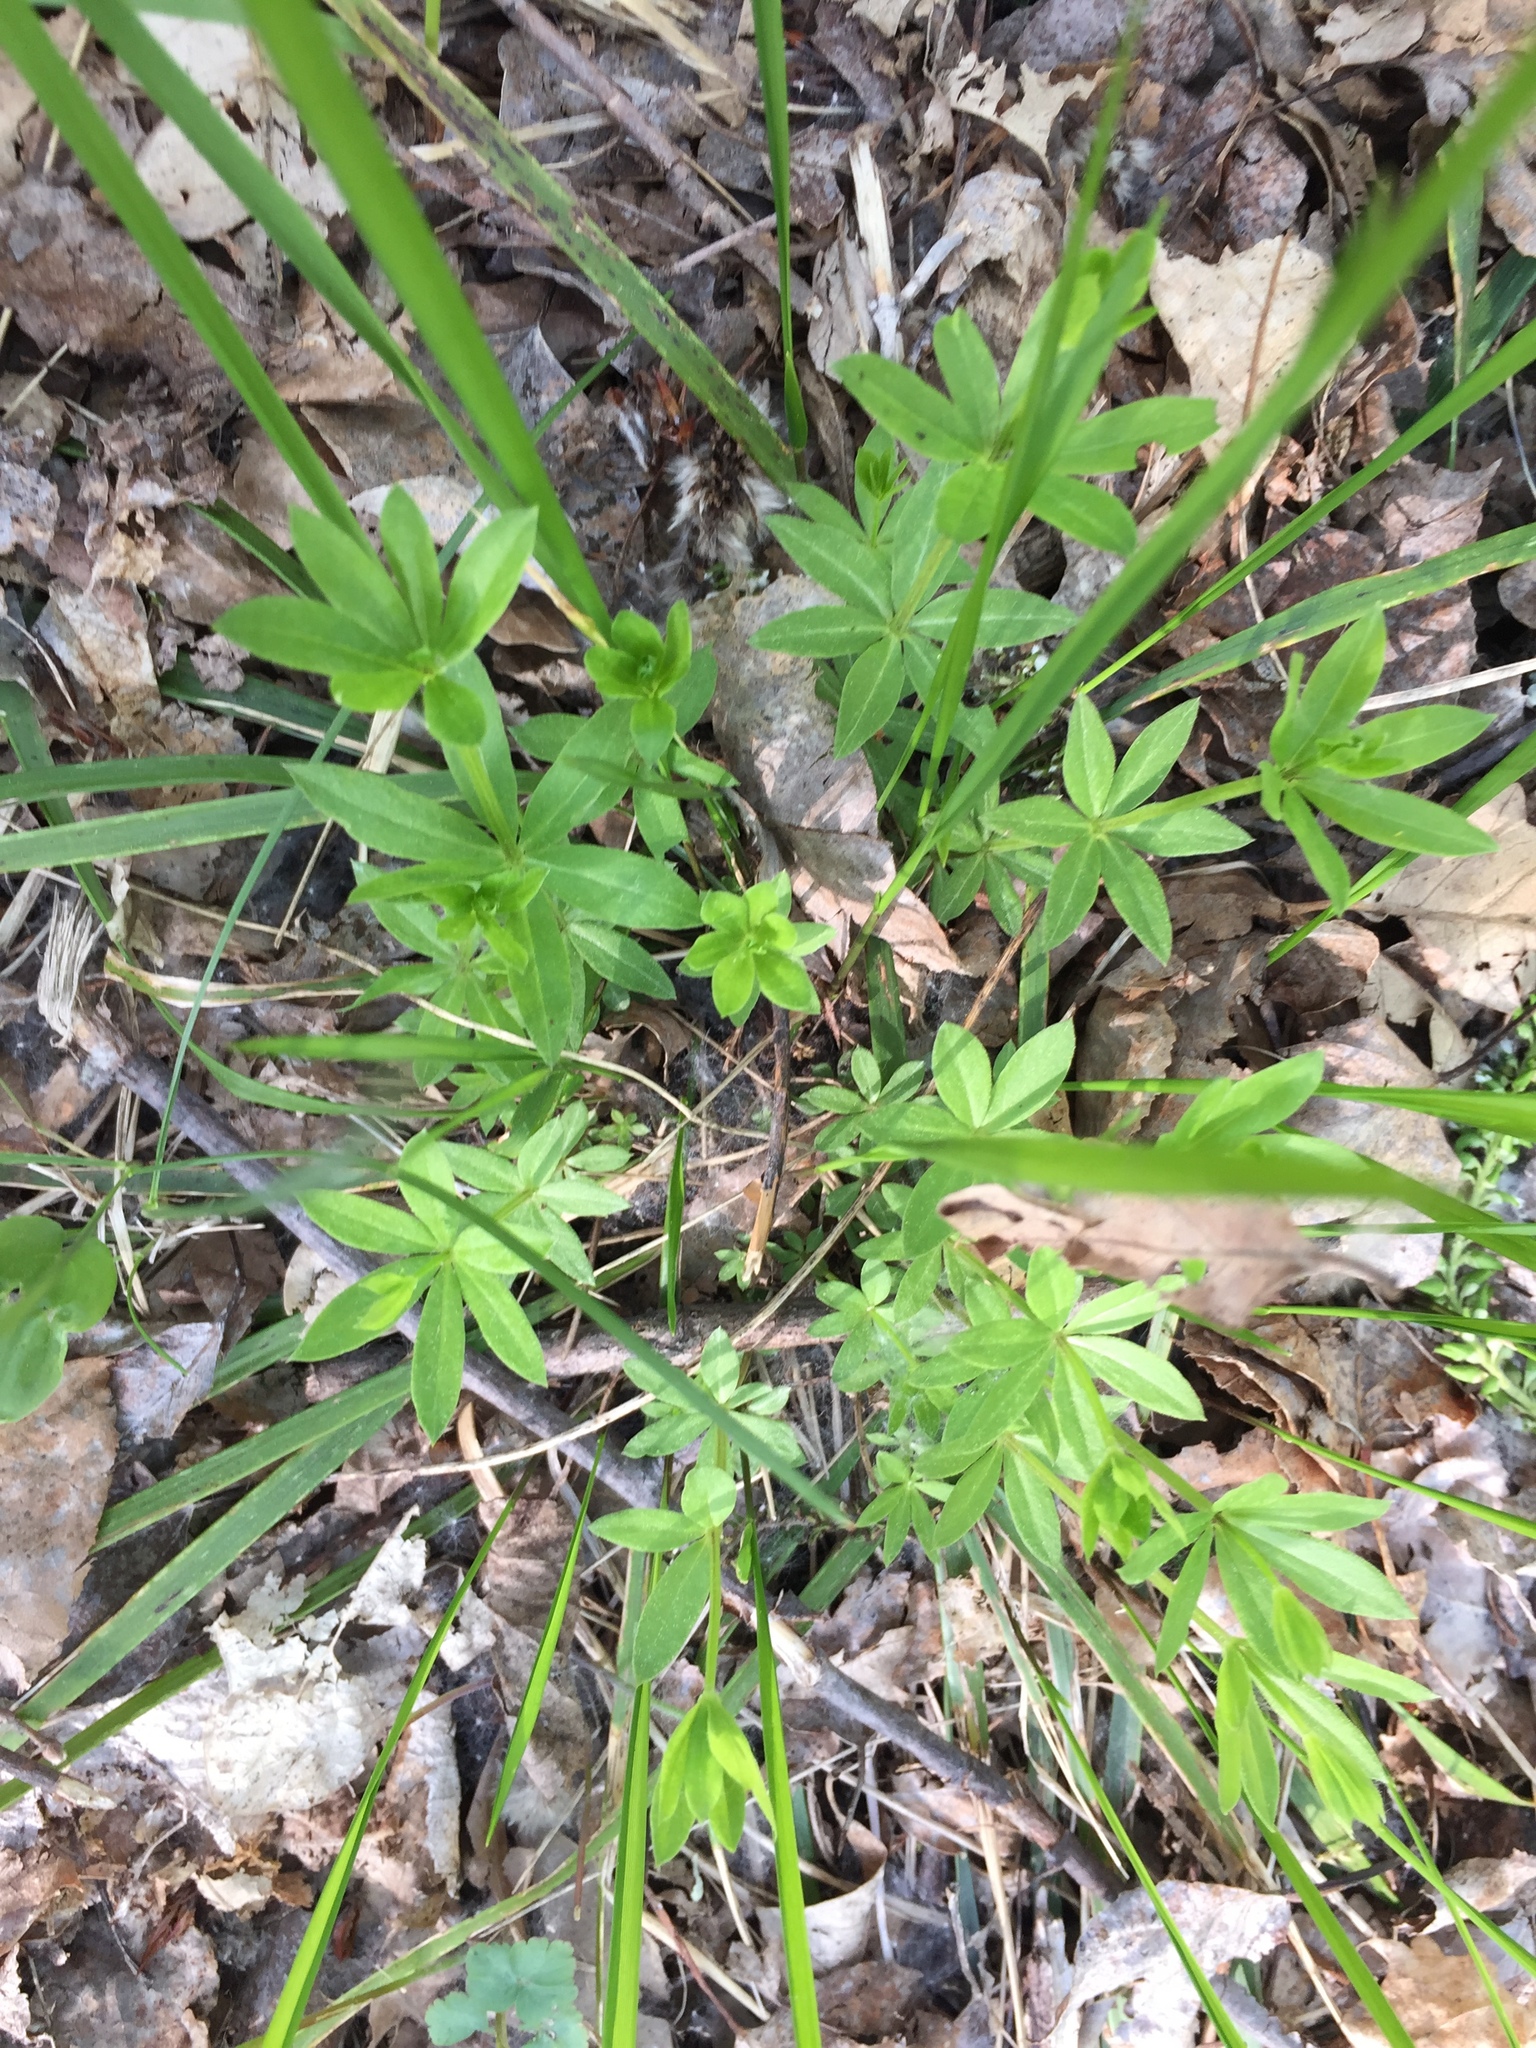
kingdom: Plantae
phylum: Tracheophyta
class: Magnoliopsida
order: Gentianales
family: Rubiaceae
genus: Galium
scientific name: Galium triflorum
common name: Fragrant bedstraw
